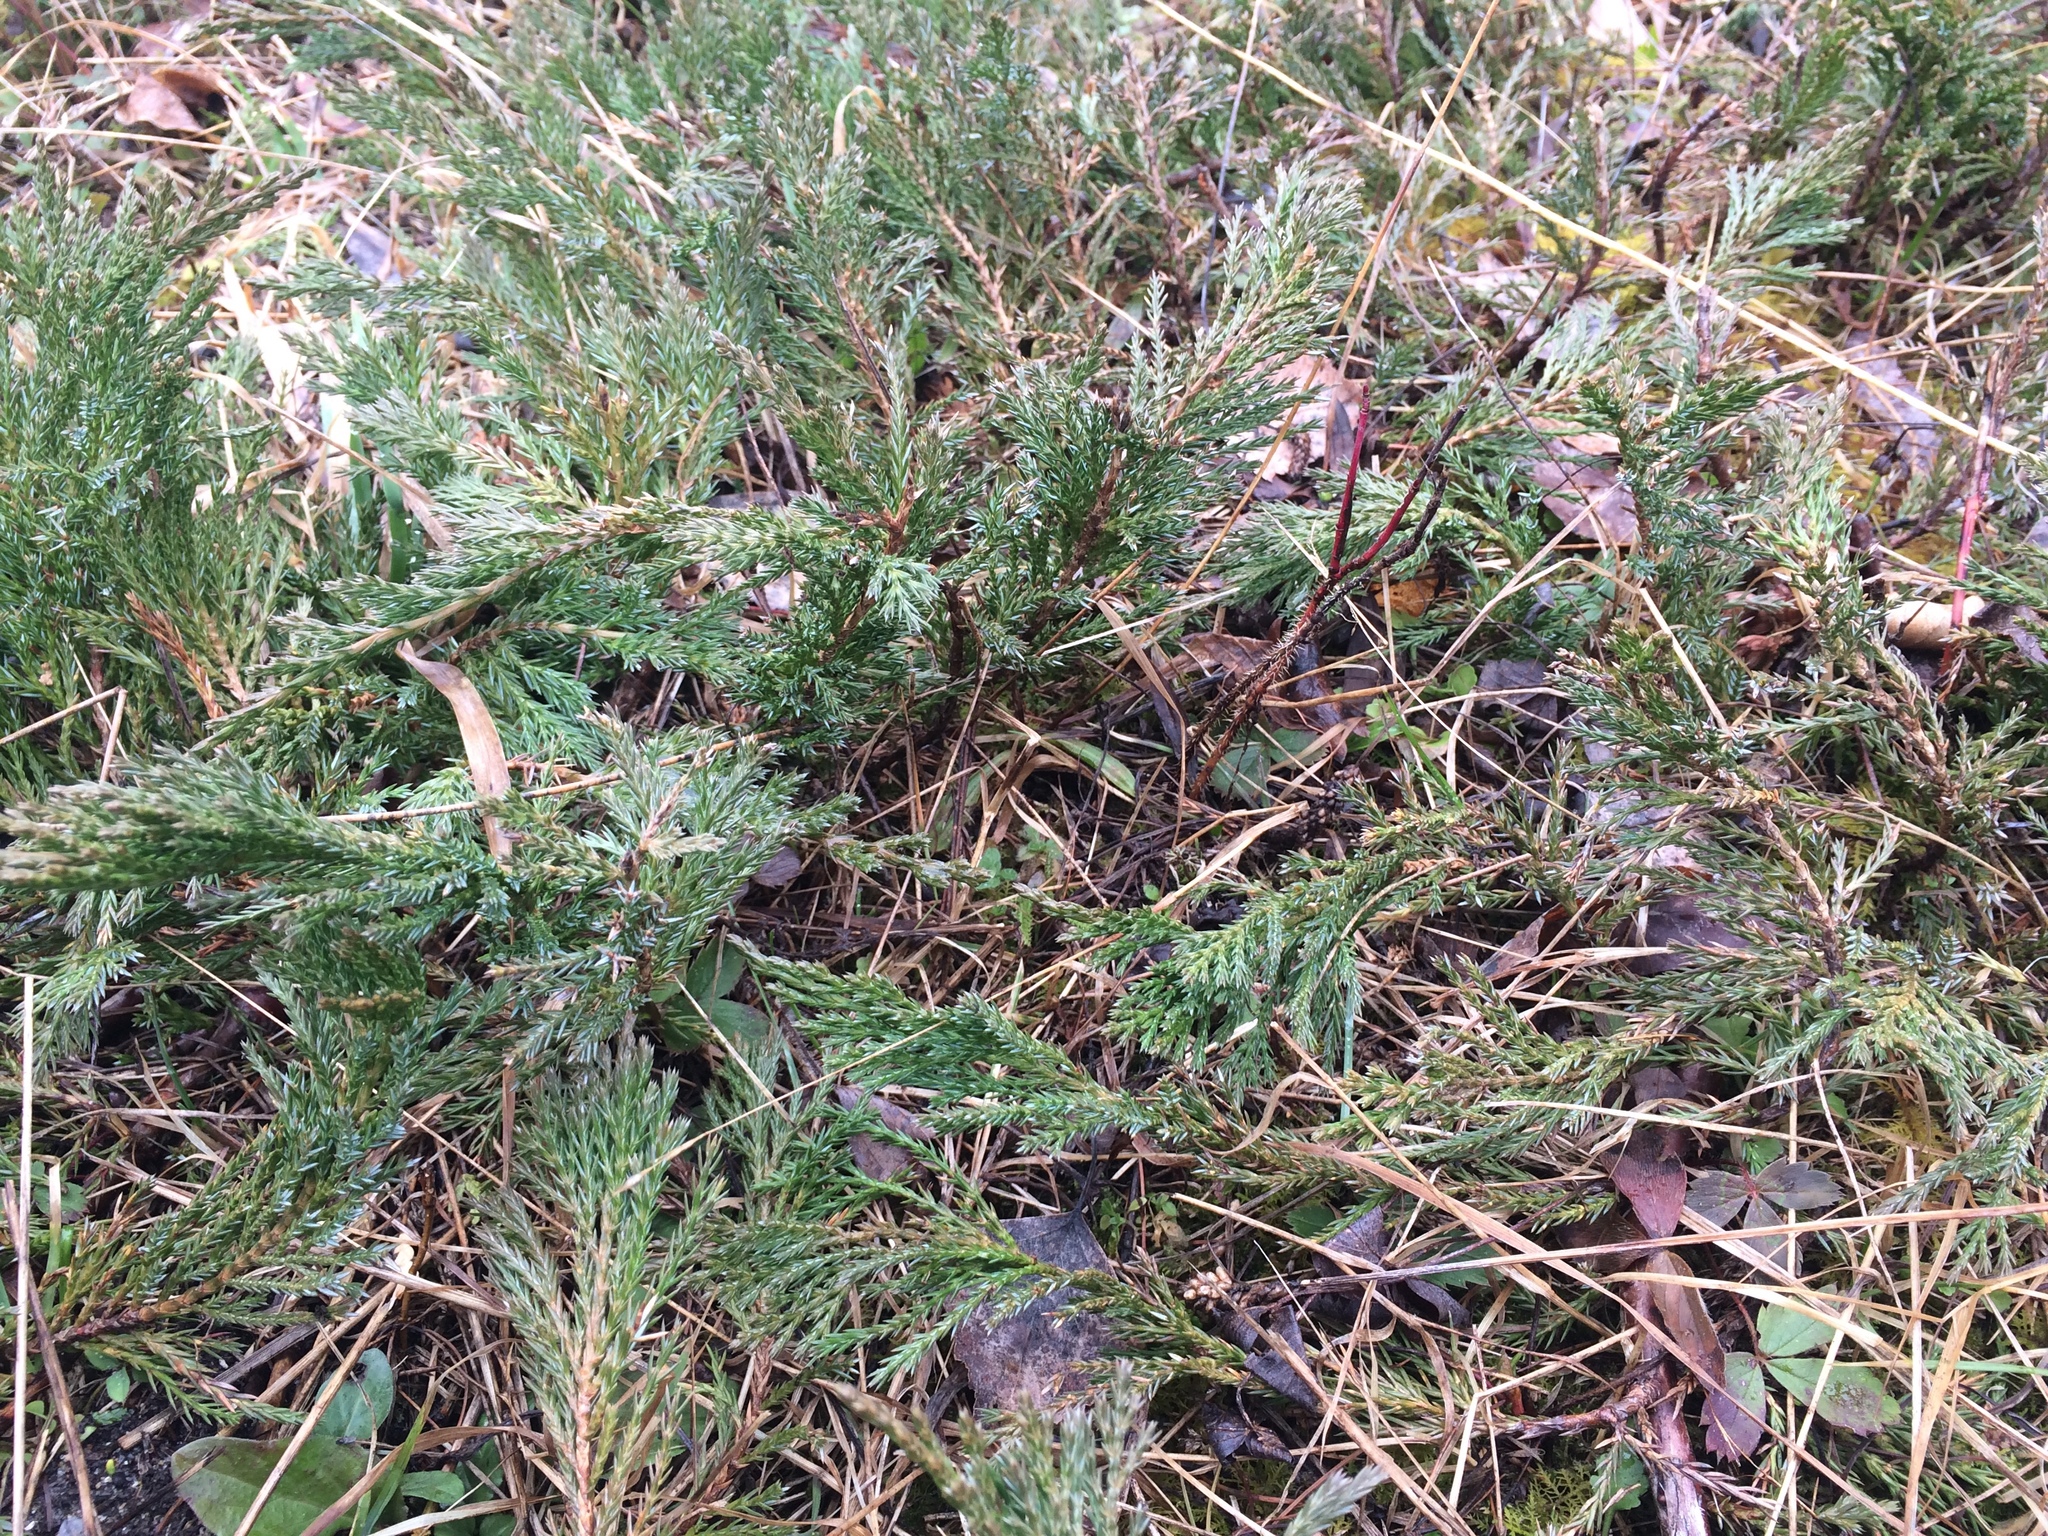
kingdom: Plantae
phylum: Tracheophyta
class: Pinopsida
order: Pinales
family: Cupressaceae
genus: Juniperus
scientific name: Juniperus horizontalis
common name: Creeping juniper
